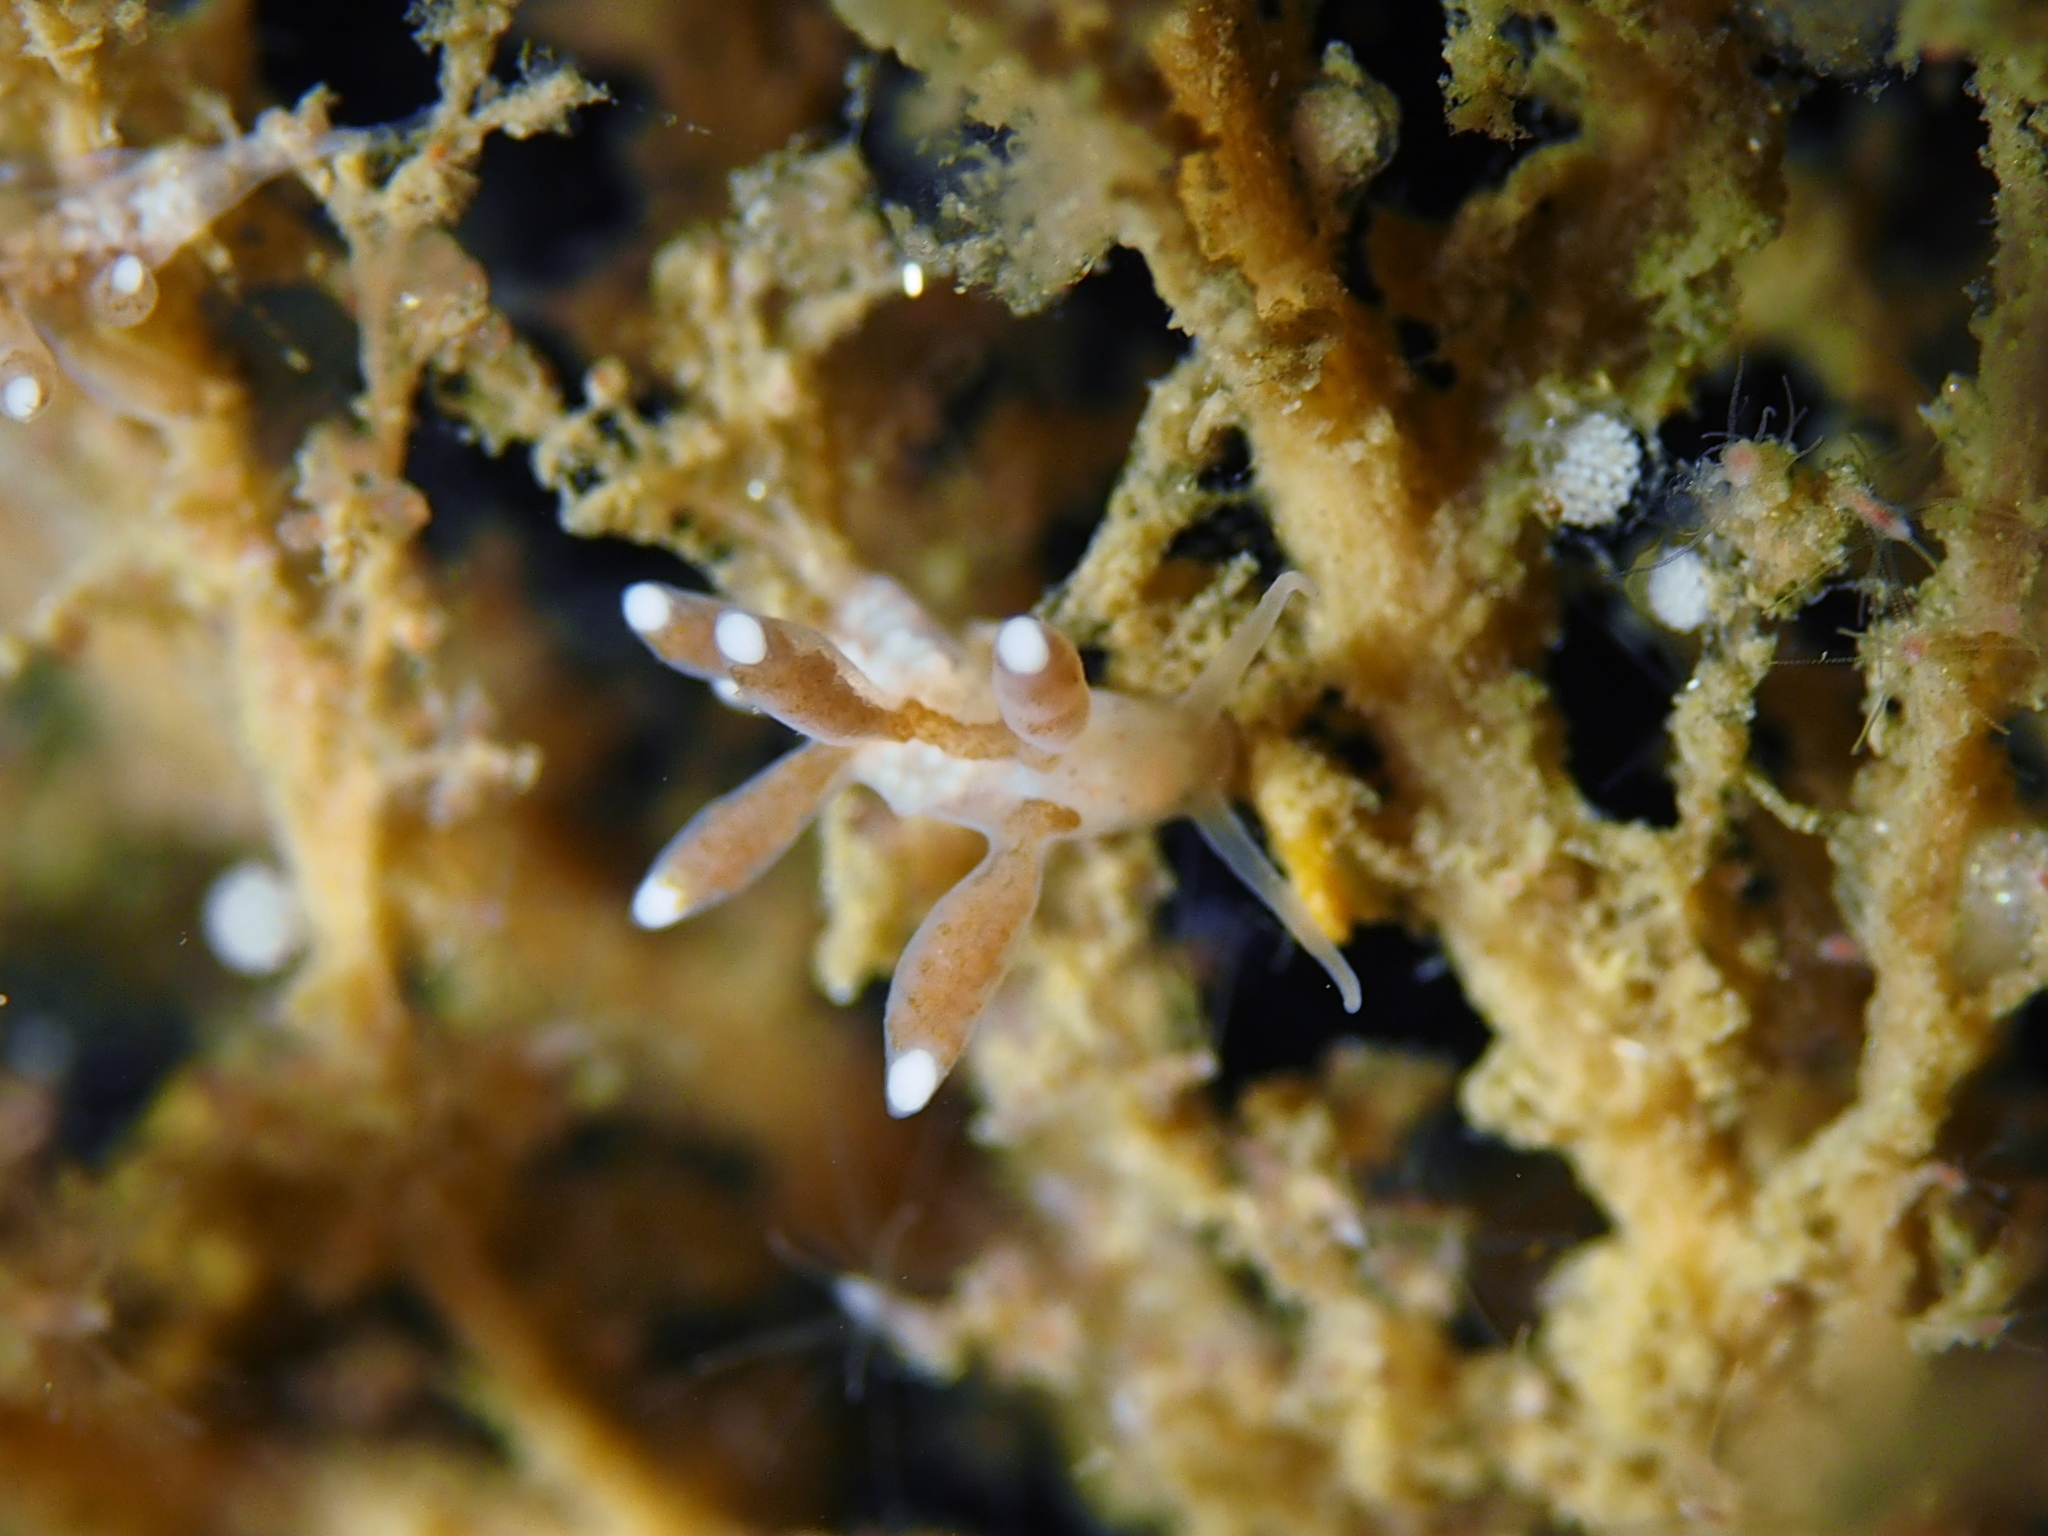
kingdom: Animalia
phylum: Mollusca
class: Gastropoda
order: Nudibranchia
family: Tergipedidae
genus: Tergipes
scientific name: Tergipes tergipes
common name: Johnston's balloon eolis
